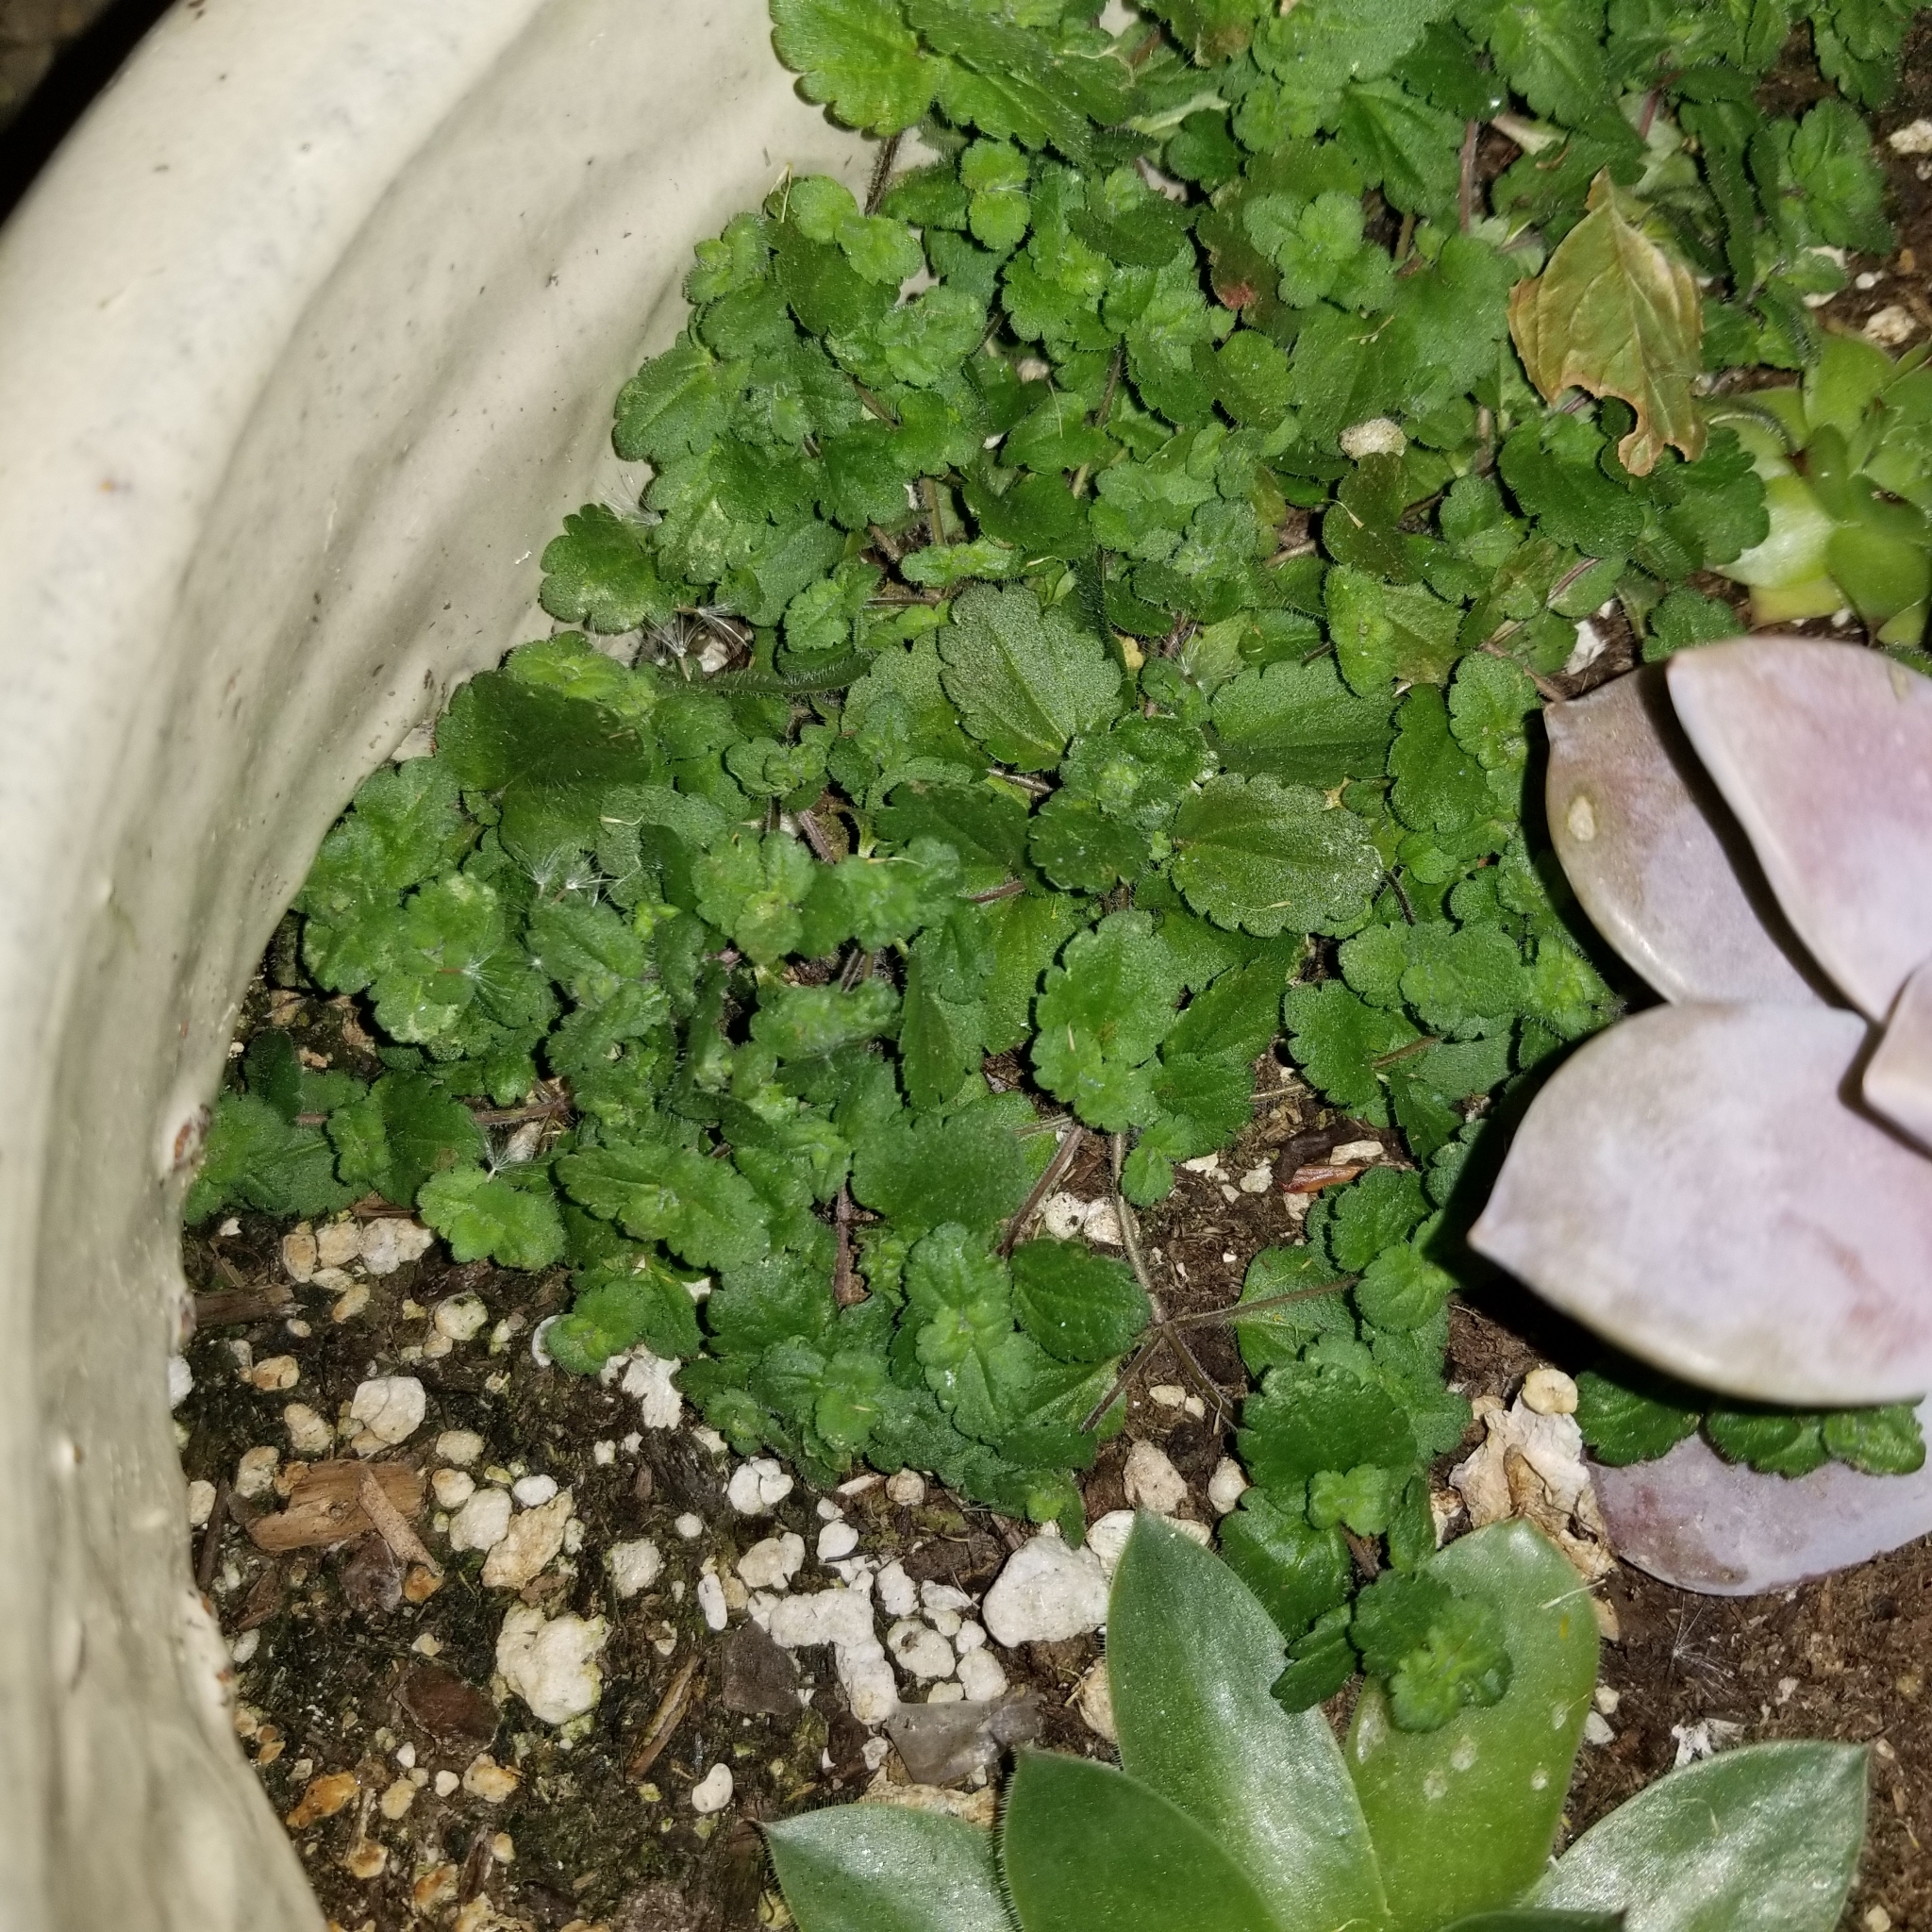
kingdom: Plantae
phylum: Tracheophyta
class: Magnoliopsida
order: Lamiales
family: Plantaginaceae
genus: Veronica
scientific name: Veronica persica
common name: Common field-speedwell
